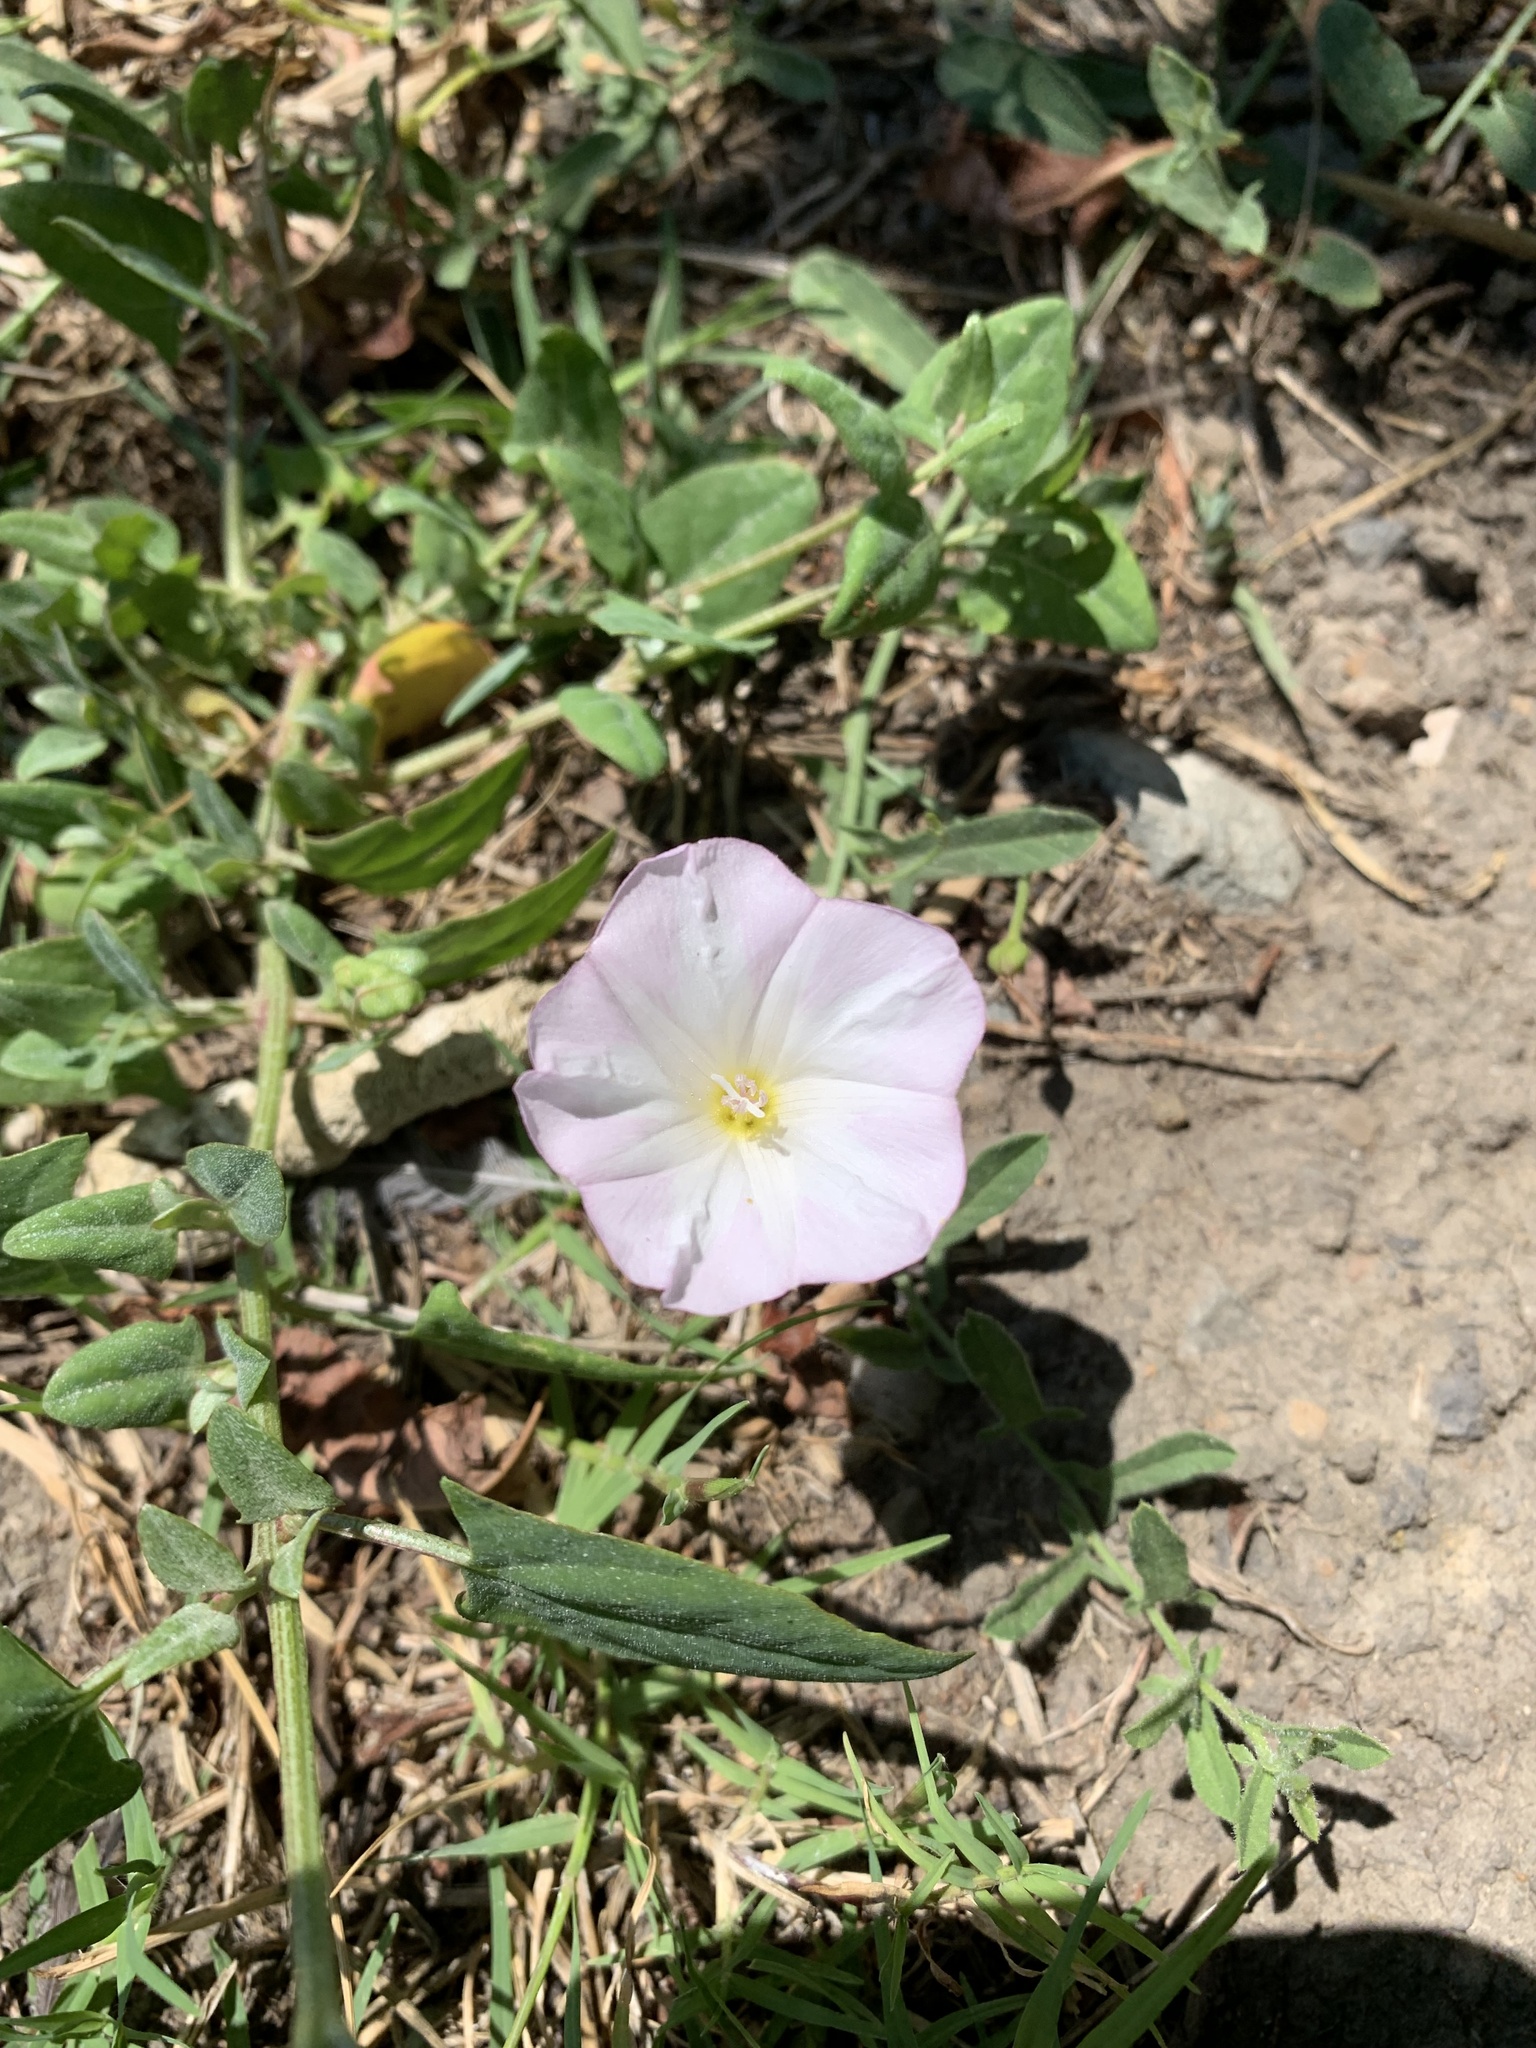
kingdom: Plantae
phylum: Tracheophyta
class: Magnoliopsida
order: Solanales
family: Convolvulaceae
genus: Convolvulus
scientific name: Convolvulus arvensis
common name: Field bindweed
